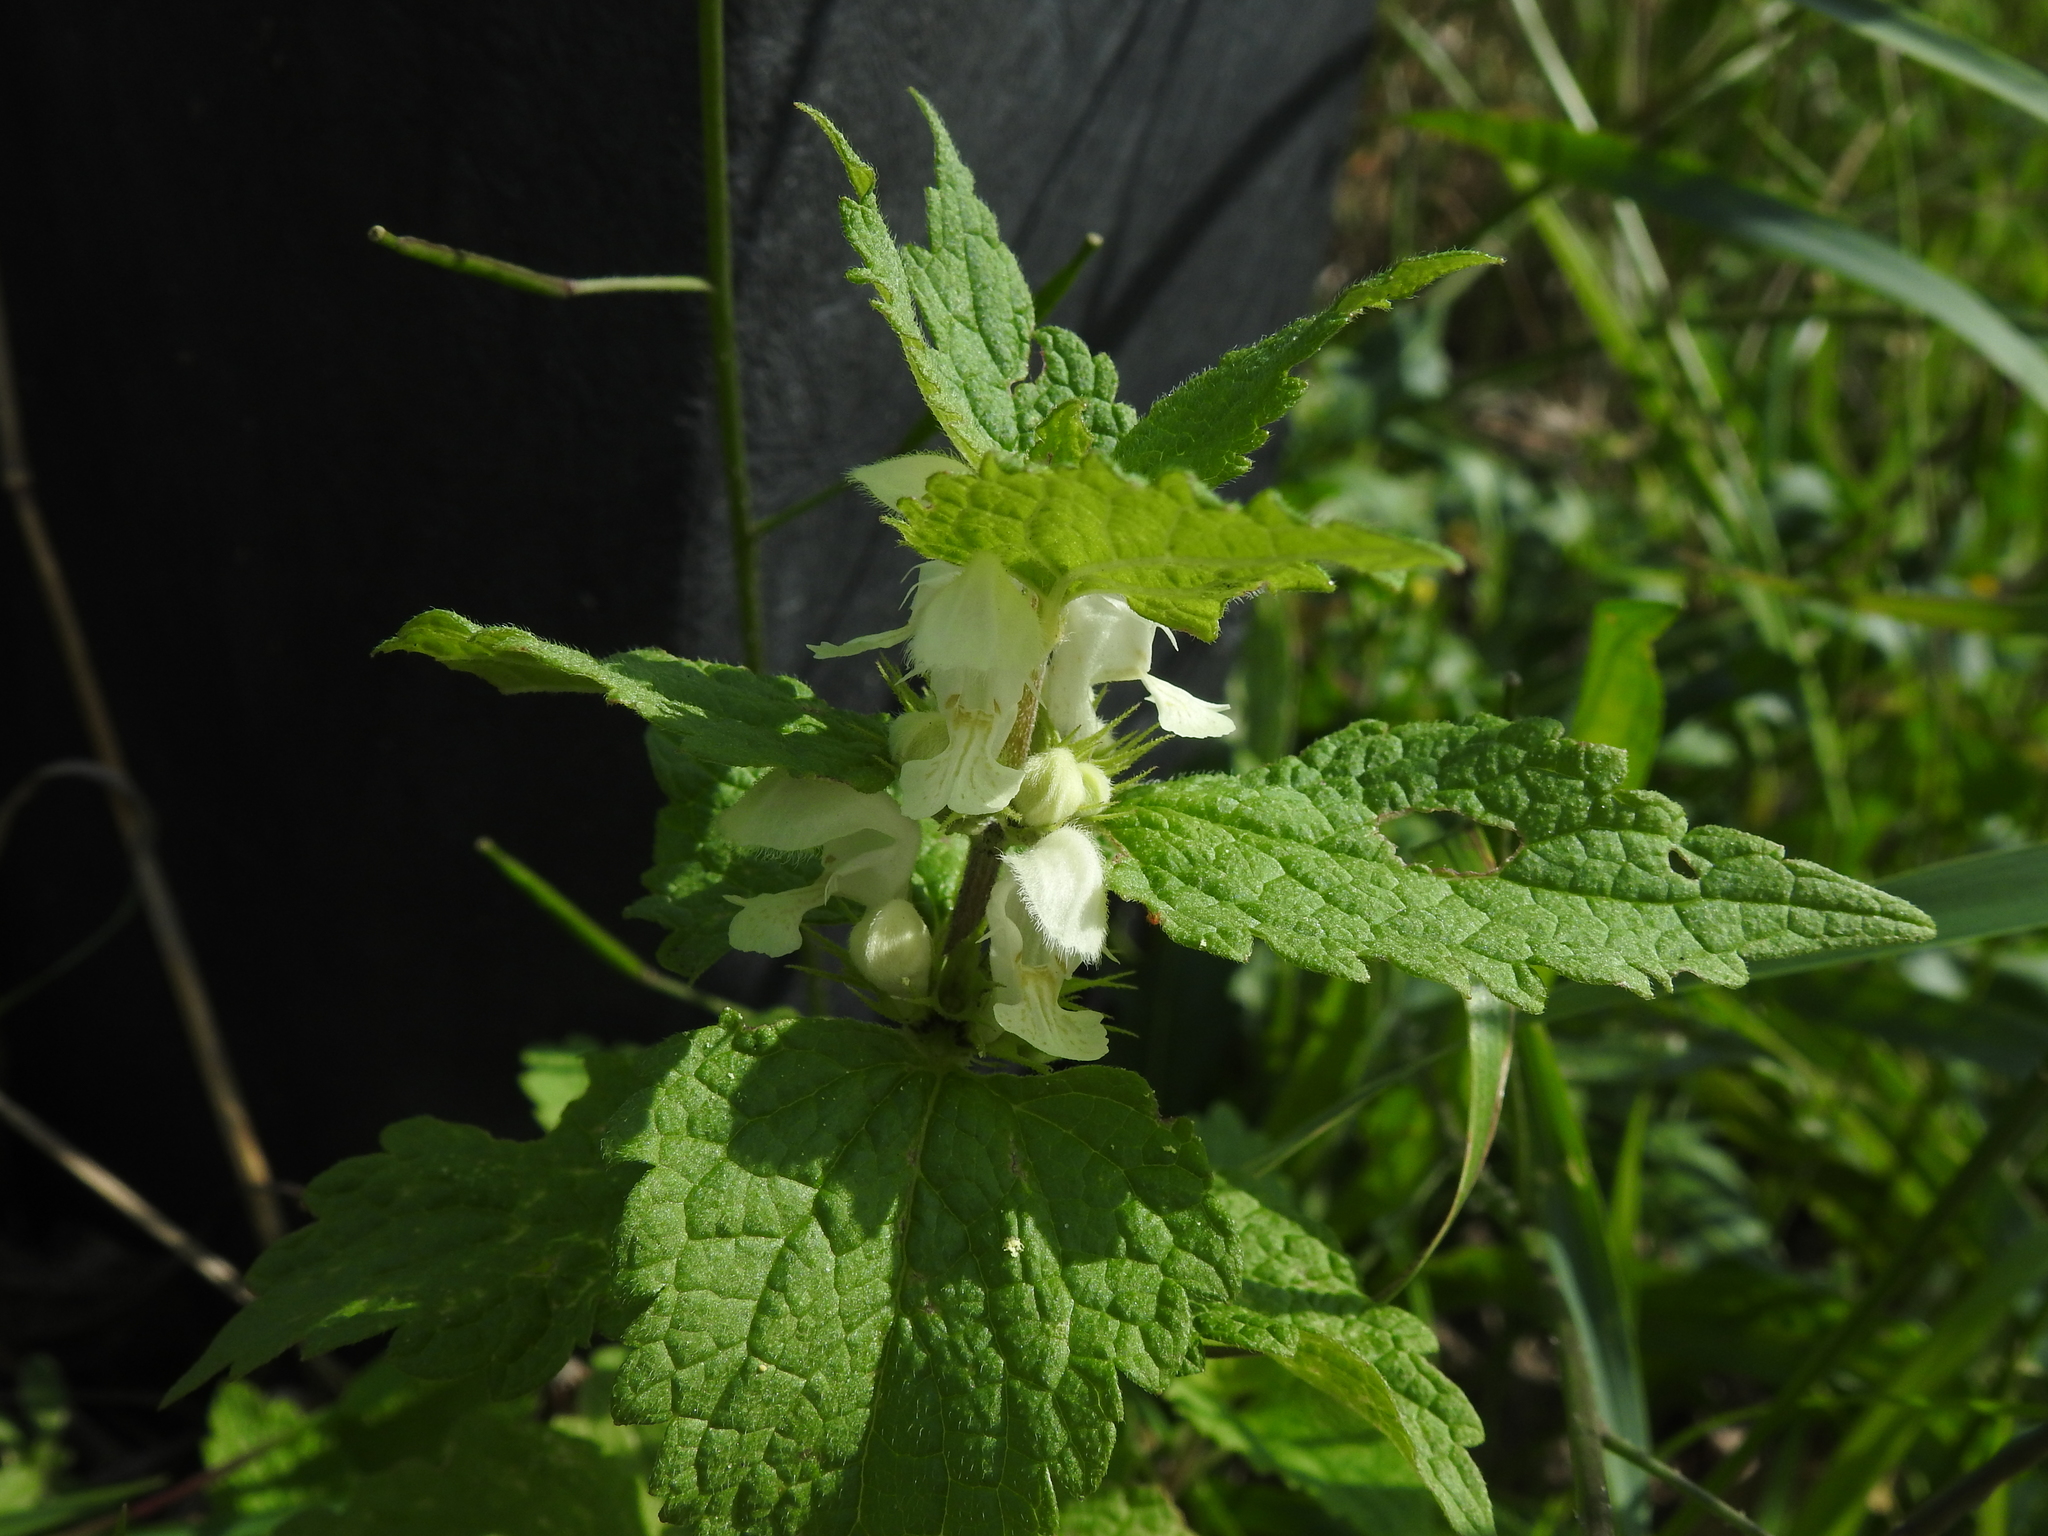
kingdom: Plantae
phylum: Tracheophyta
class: Magnoliopsida
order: Lamiales
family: Lamiaceae
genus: Lamium
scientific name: Lamium album
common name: White dead-nettle
